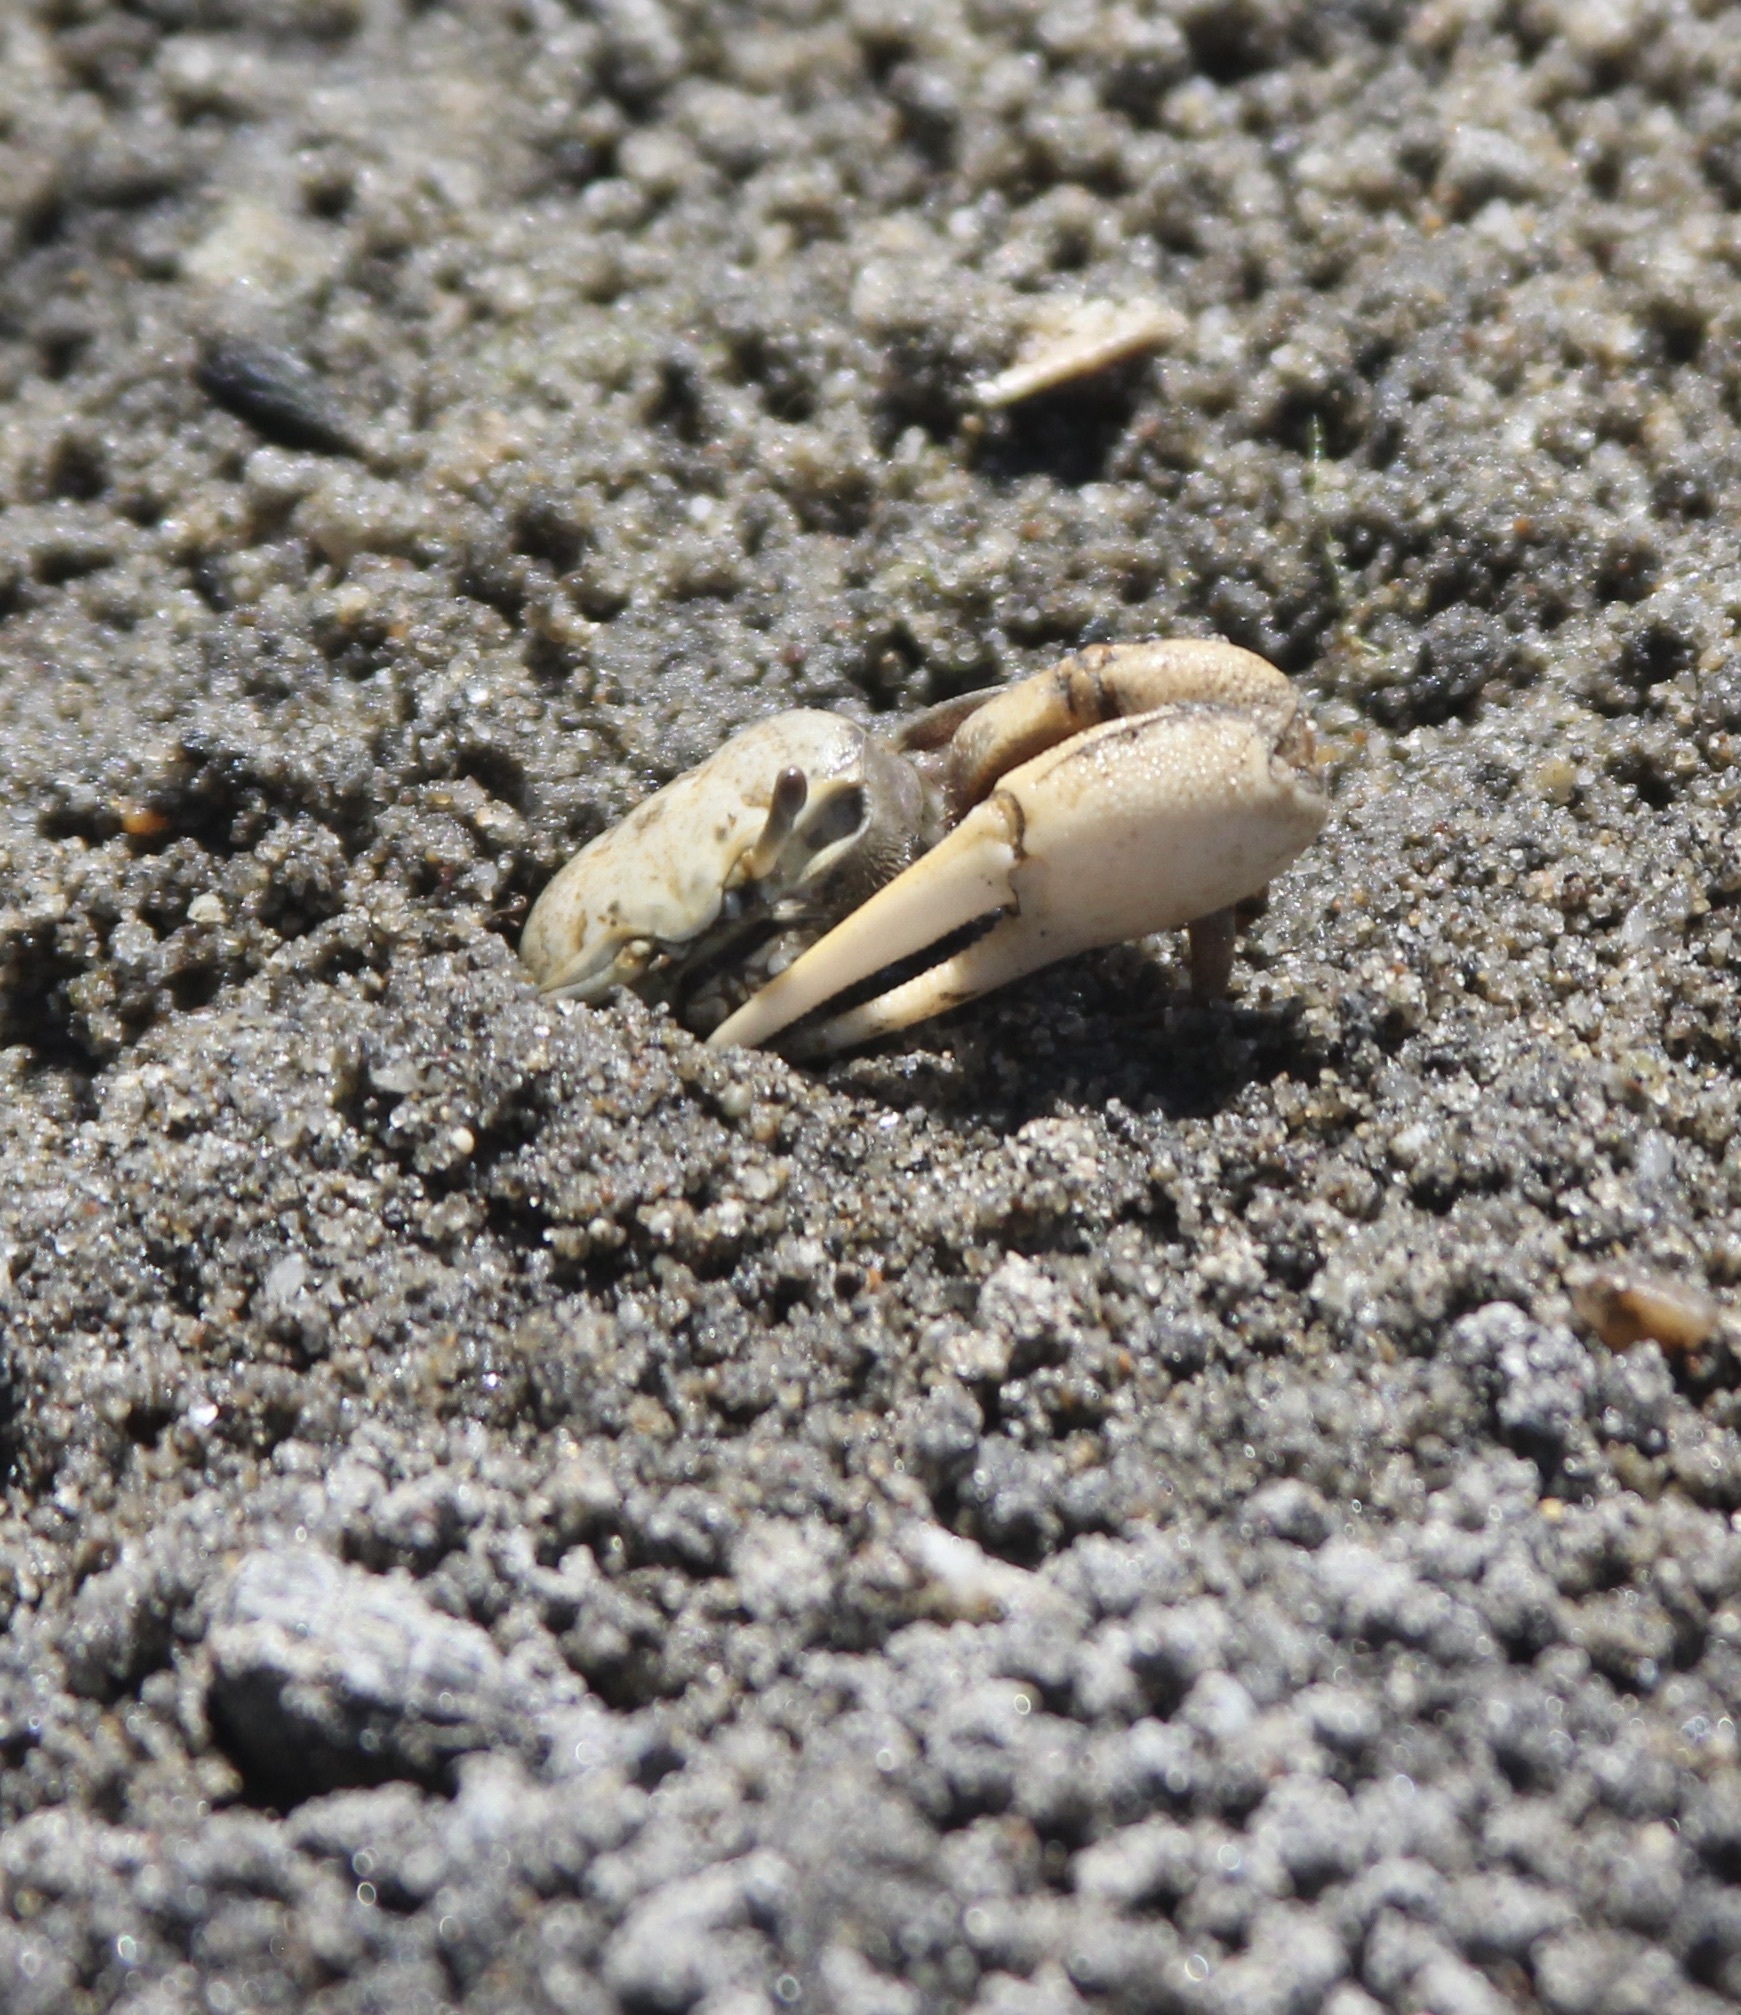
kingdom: Animalia
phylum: Arthropoda
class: Malacostraca
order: Decapoda
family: Ocypodidae
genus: Leptuca
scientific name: Leptuca crenulata
